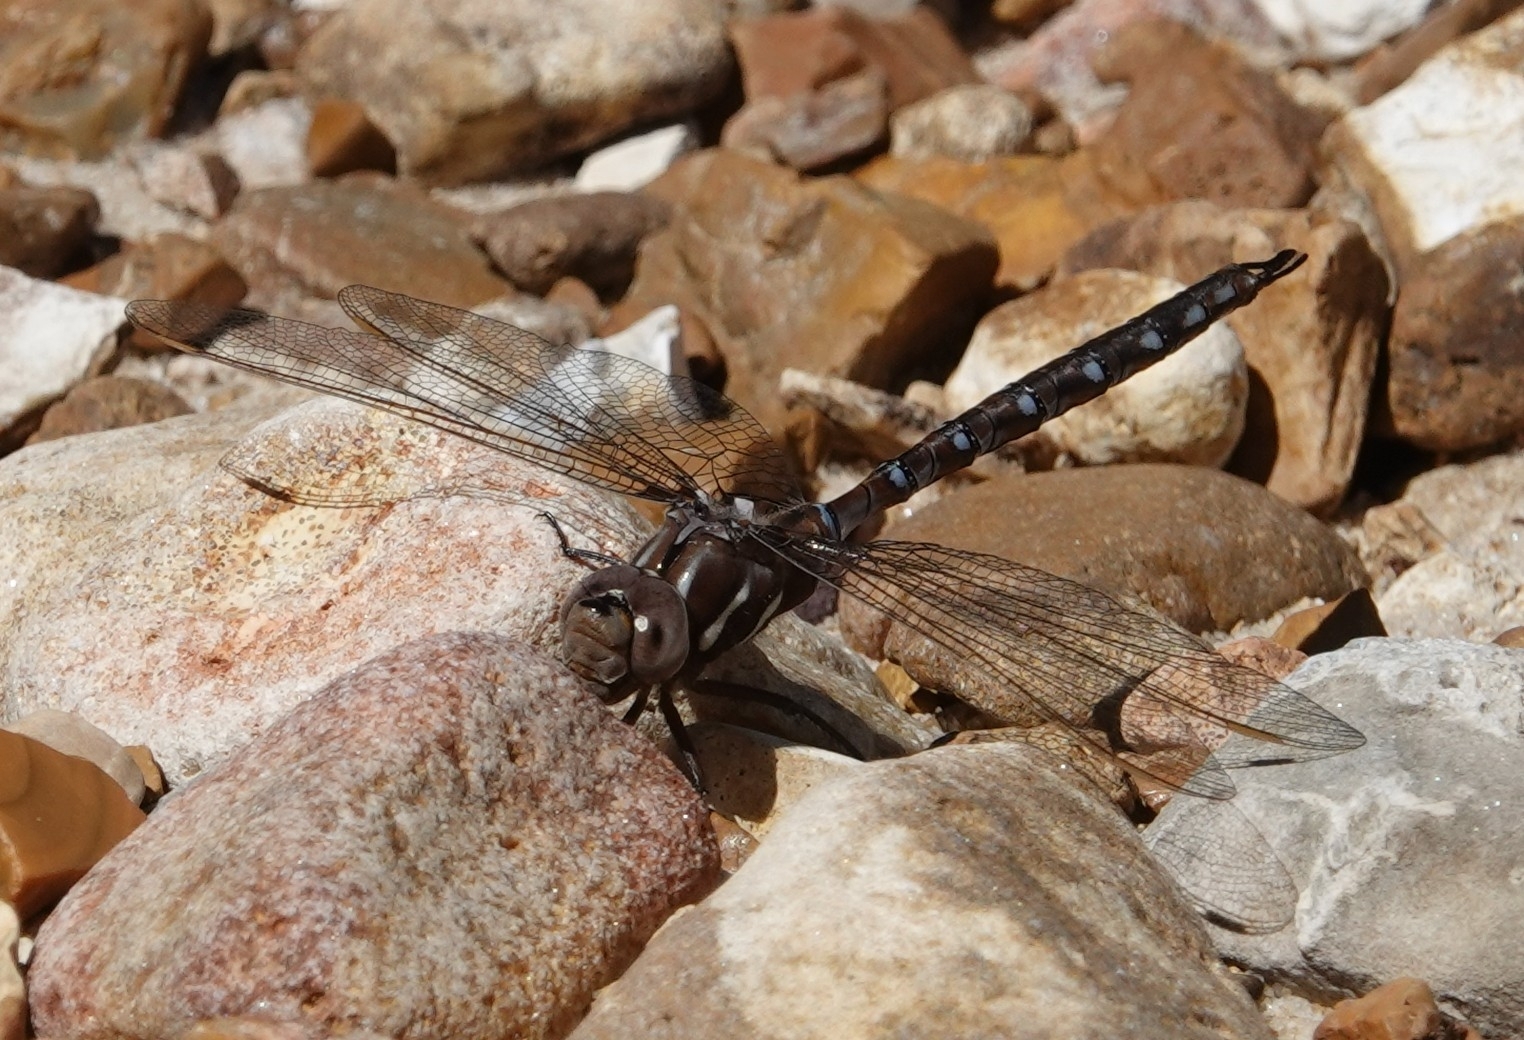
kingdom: Animalia
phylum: Arthropoda
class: Insecta
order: Odonata
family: Aeshnidae
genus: Basiaeschna
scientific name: Basiaeschna janata
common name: Springtime darner
